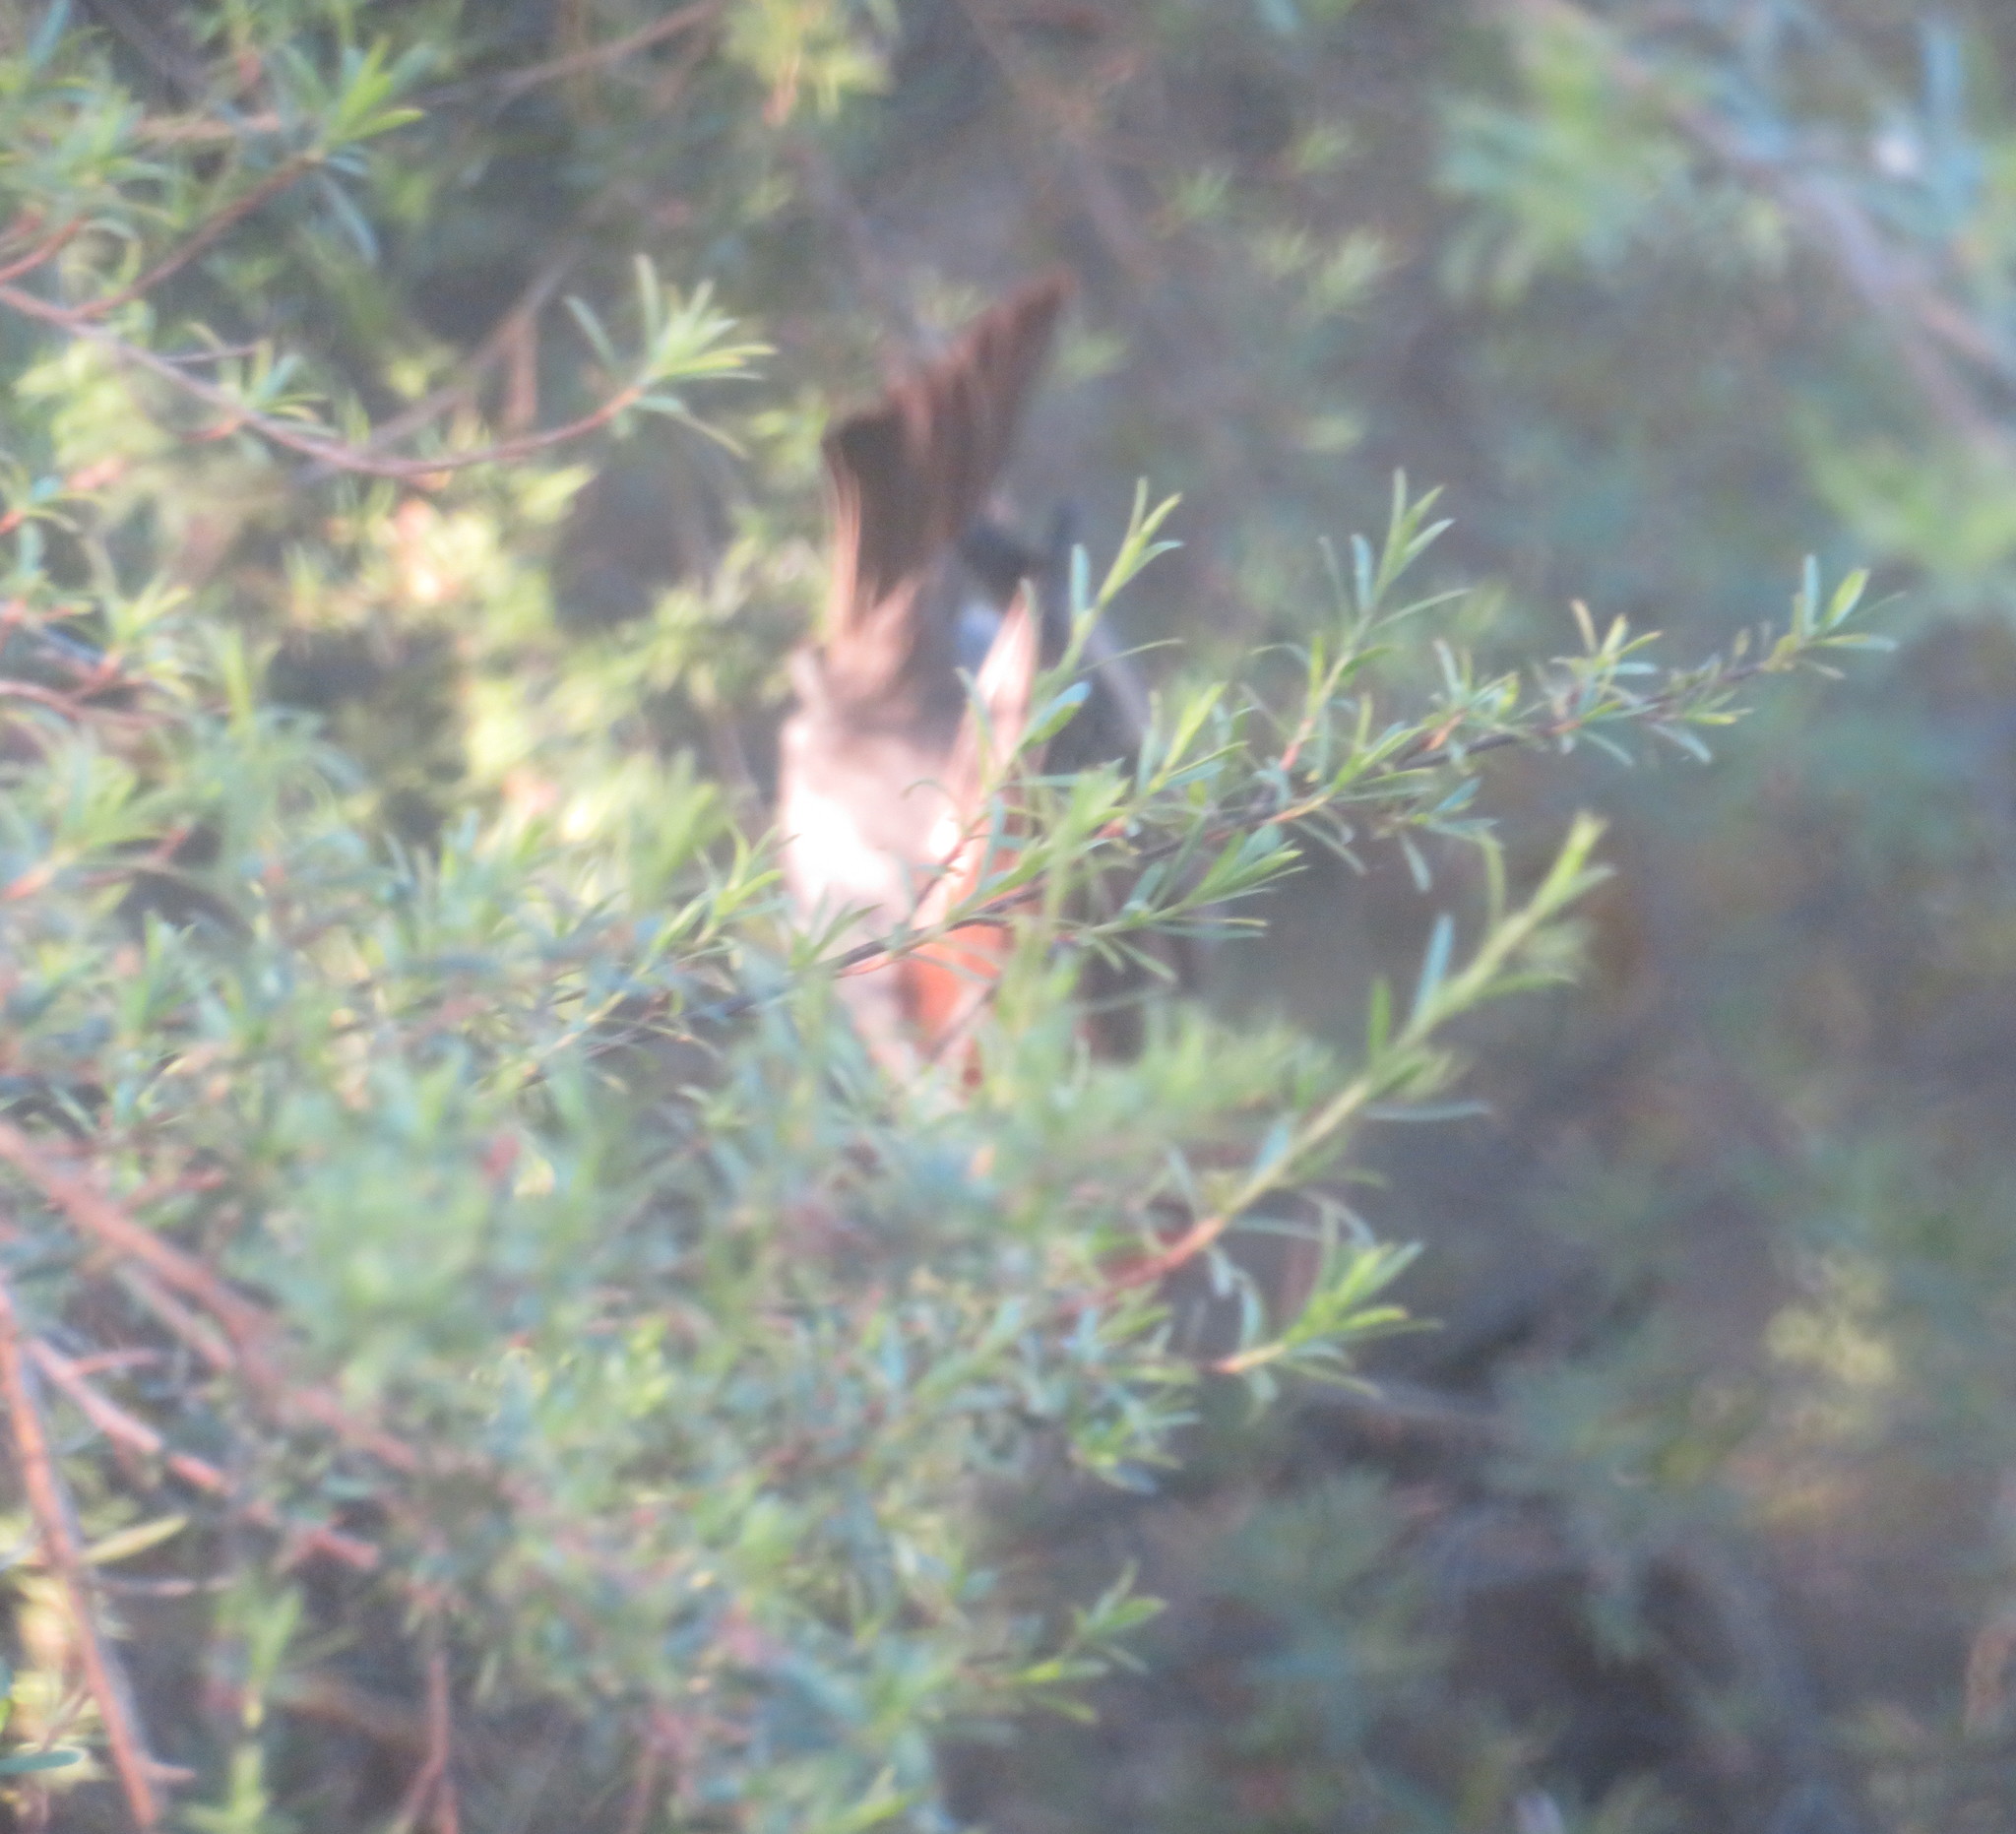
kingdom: Animalia
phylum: Chordata
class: Aves
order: Passeriformes
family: Passeridae
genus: Passer
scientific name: Passer domesticus
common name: House sparrow
